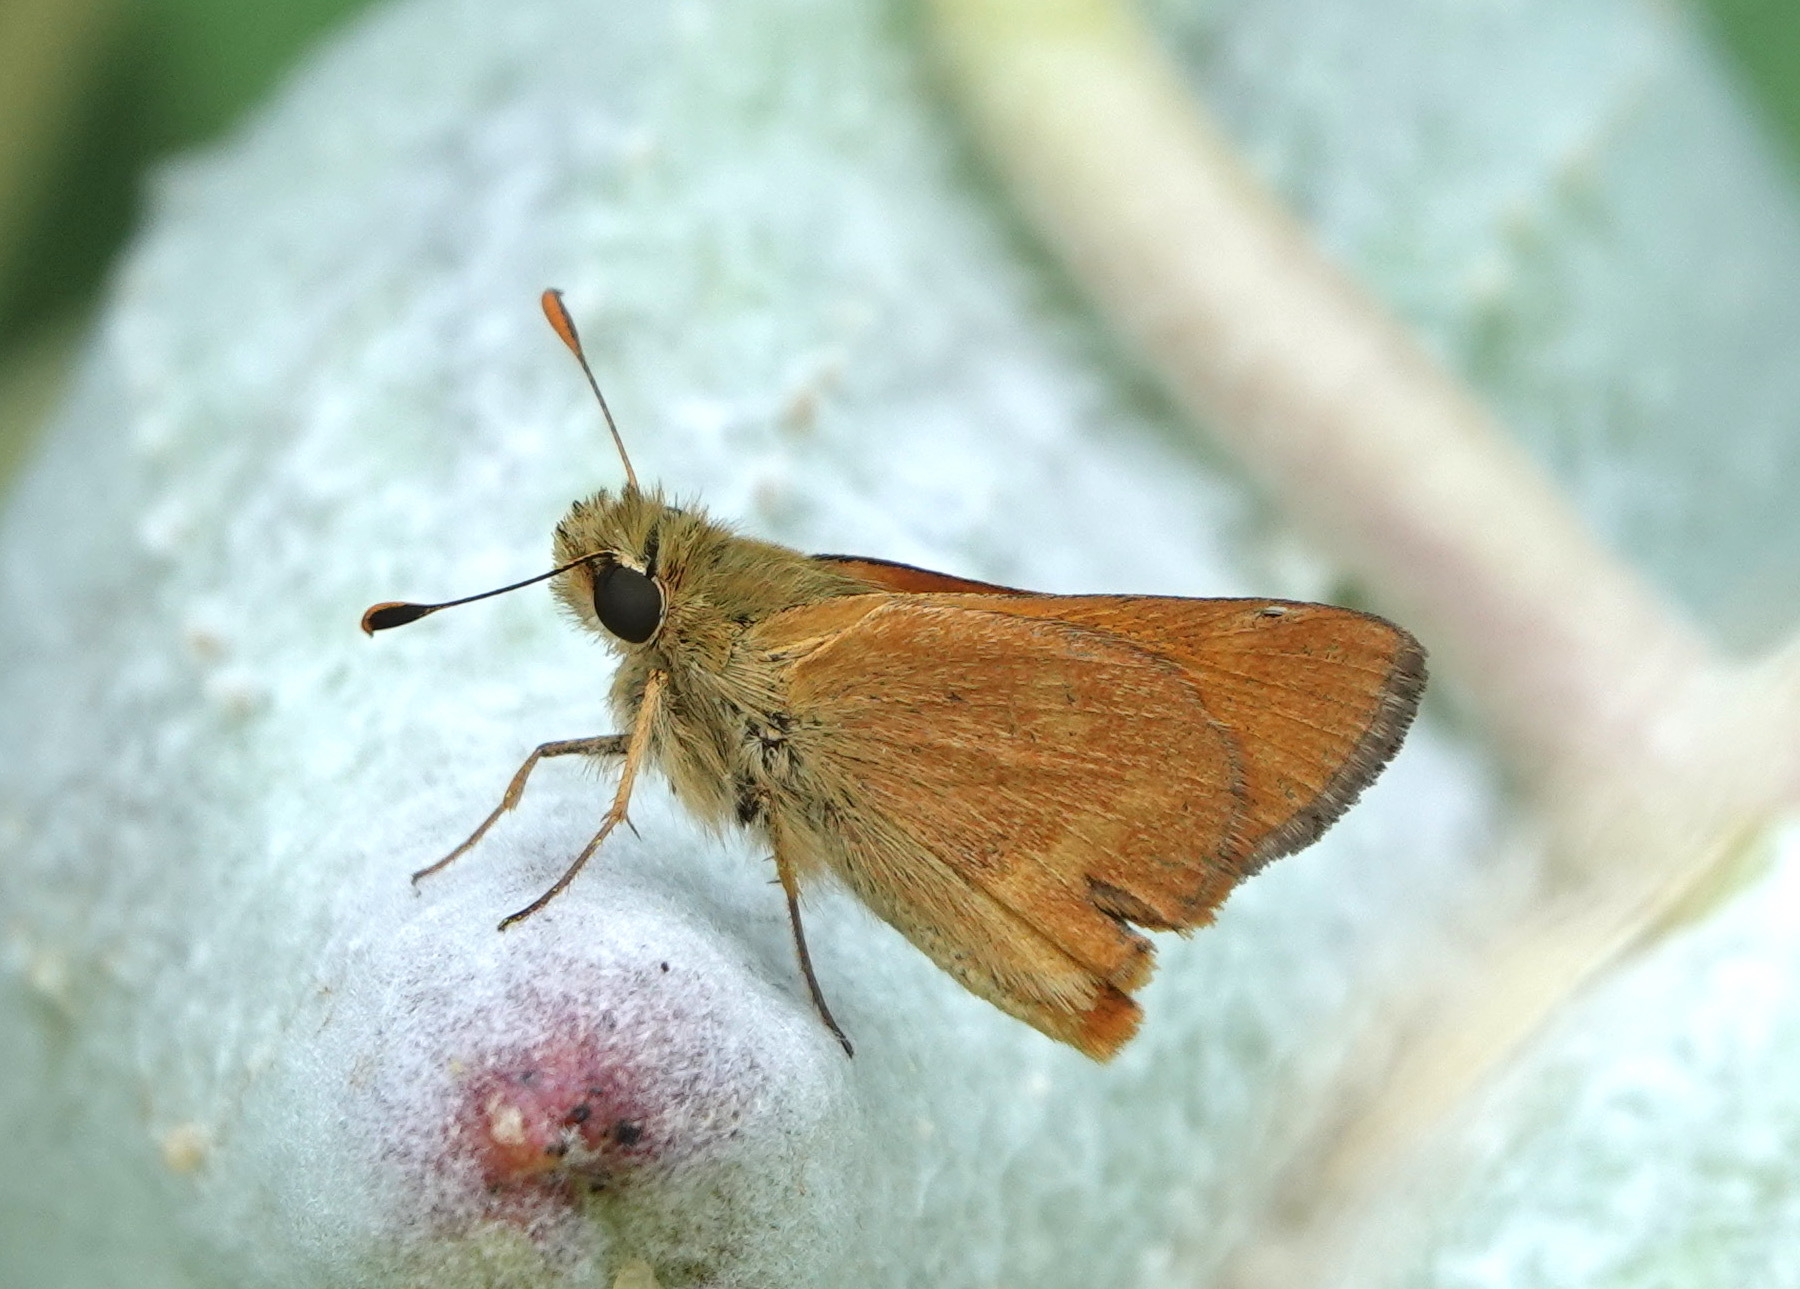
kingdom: Animalia
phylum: Arthropoda
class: Insecta
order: Lepidoptera
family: Hesperiidae
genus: Ochlodes
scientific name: Ochlodes sylvanoides
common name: Woodland skipper
